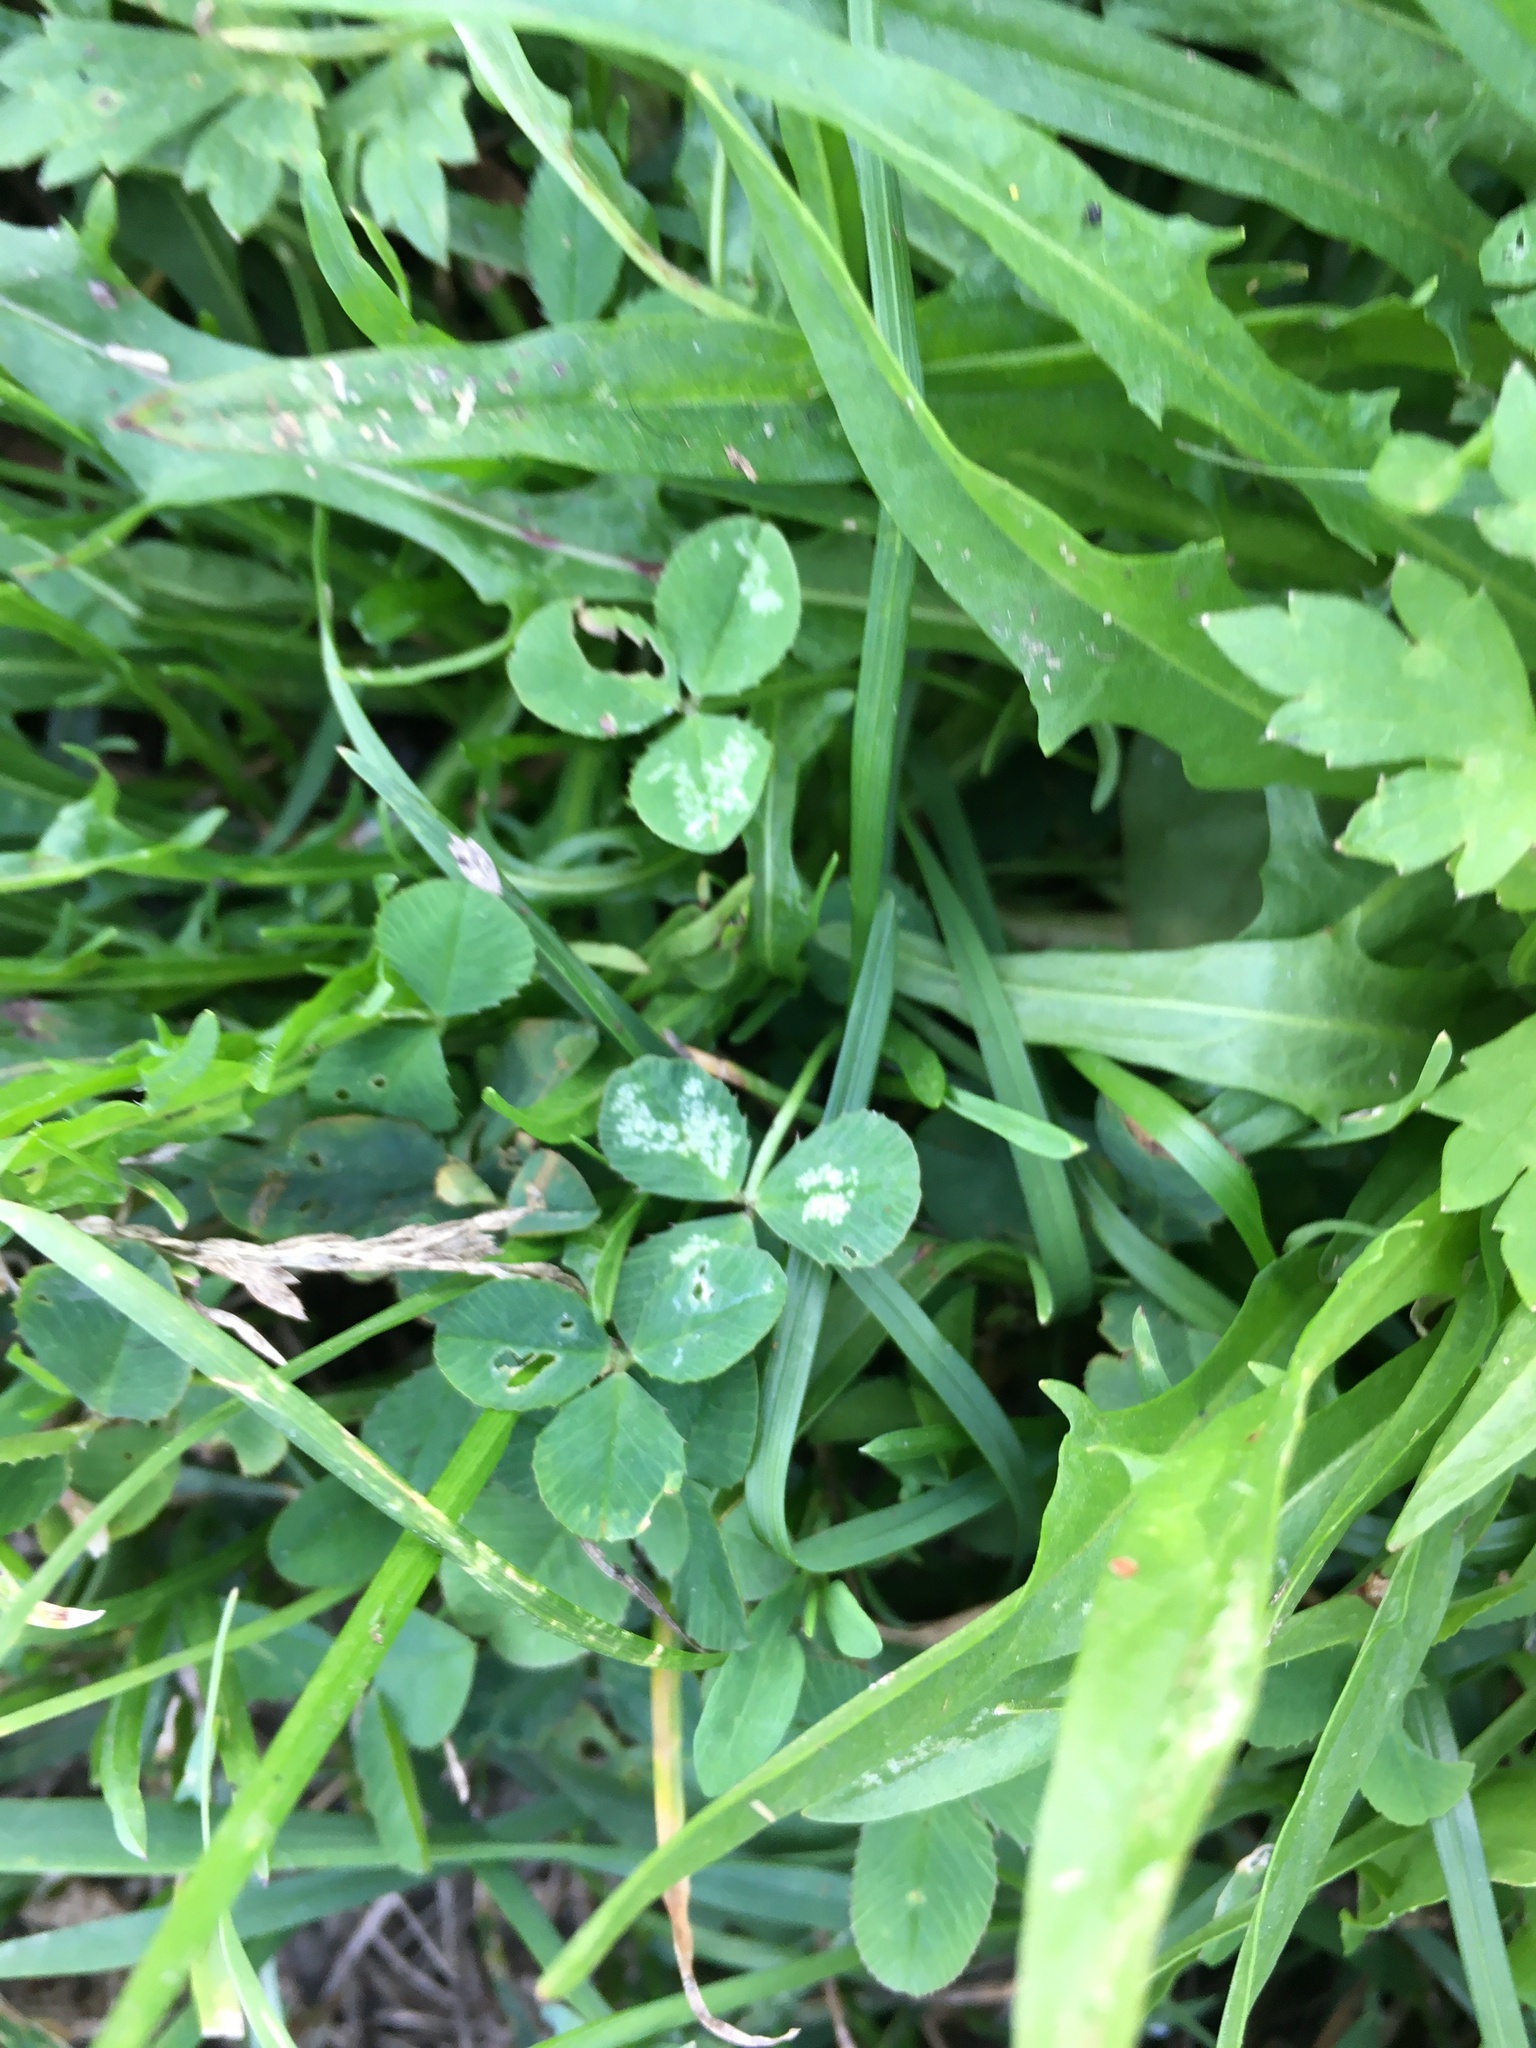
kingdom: Plantae
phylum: Tracheophyta
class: Magnoliopsida
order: Fabales
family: Fabaceae
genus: Trifolium
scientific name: Trifolium repens
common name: White clover
